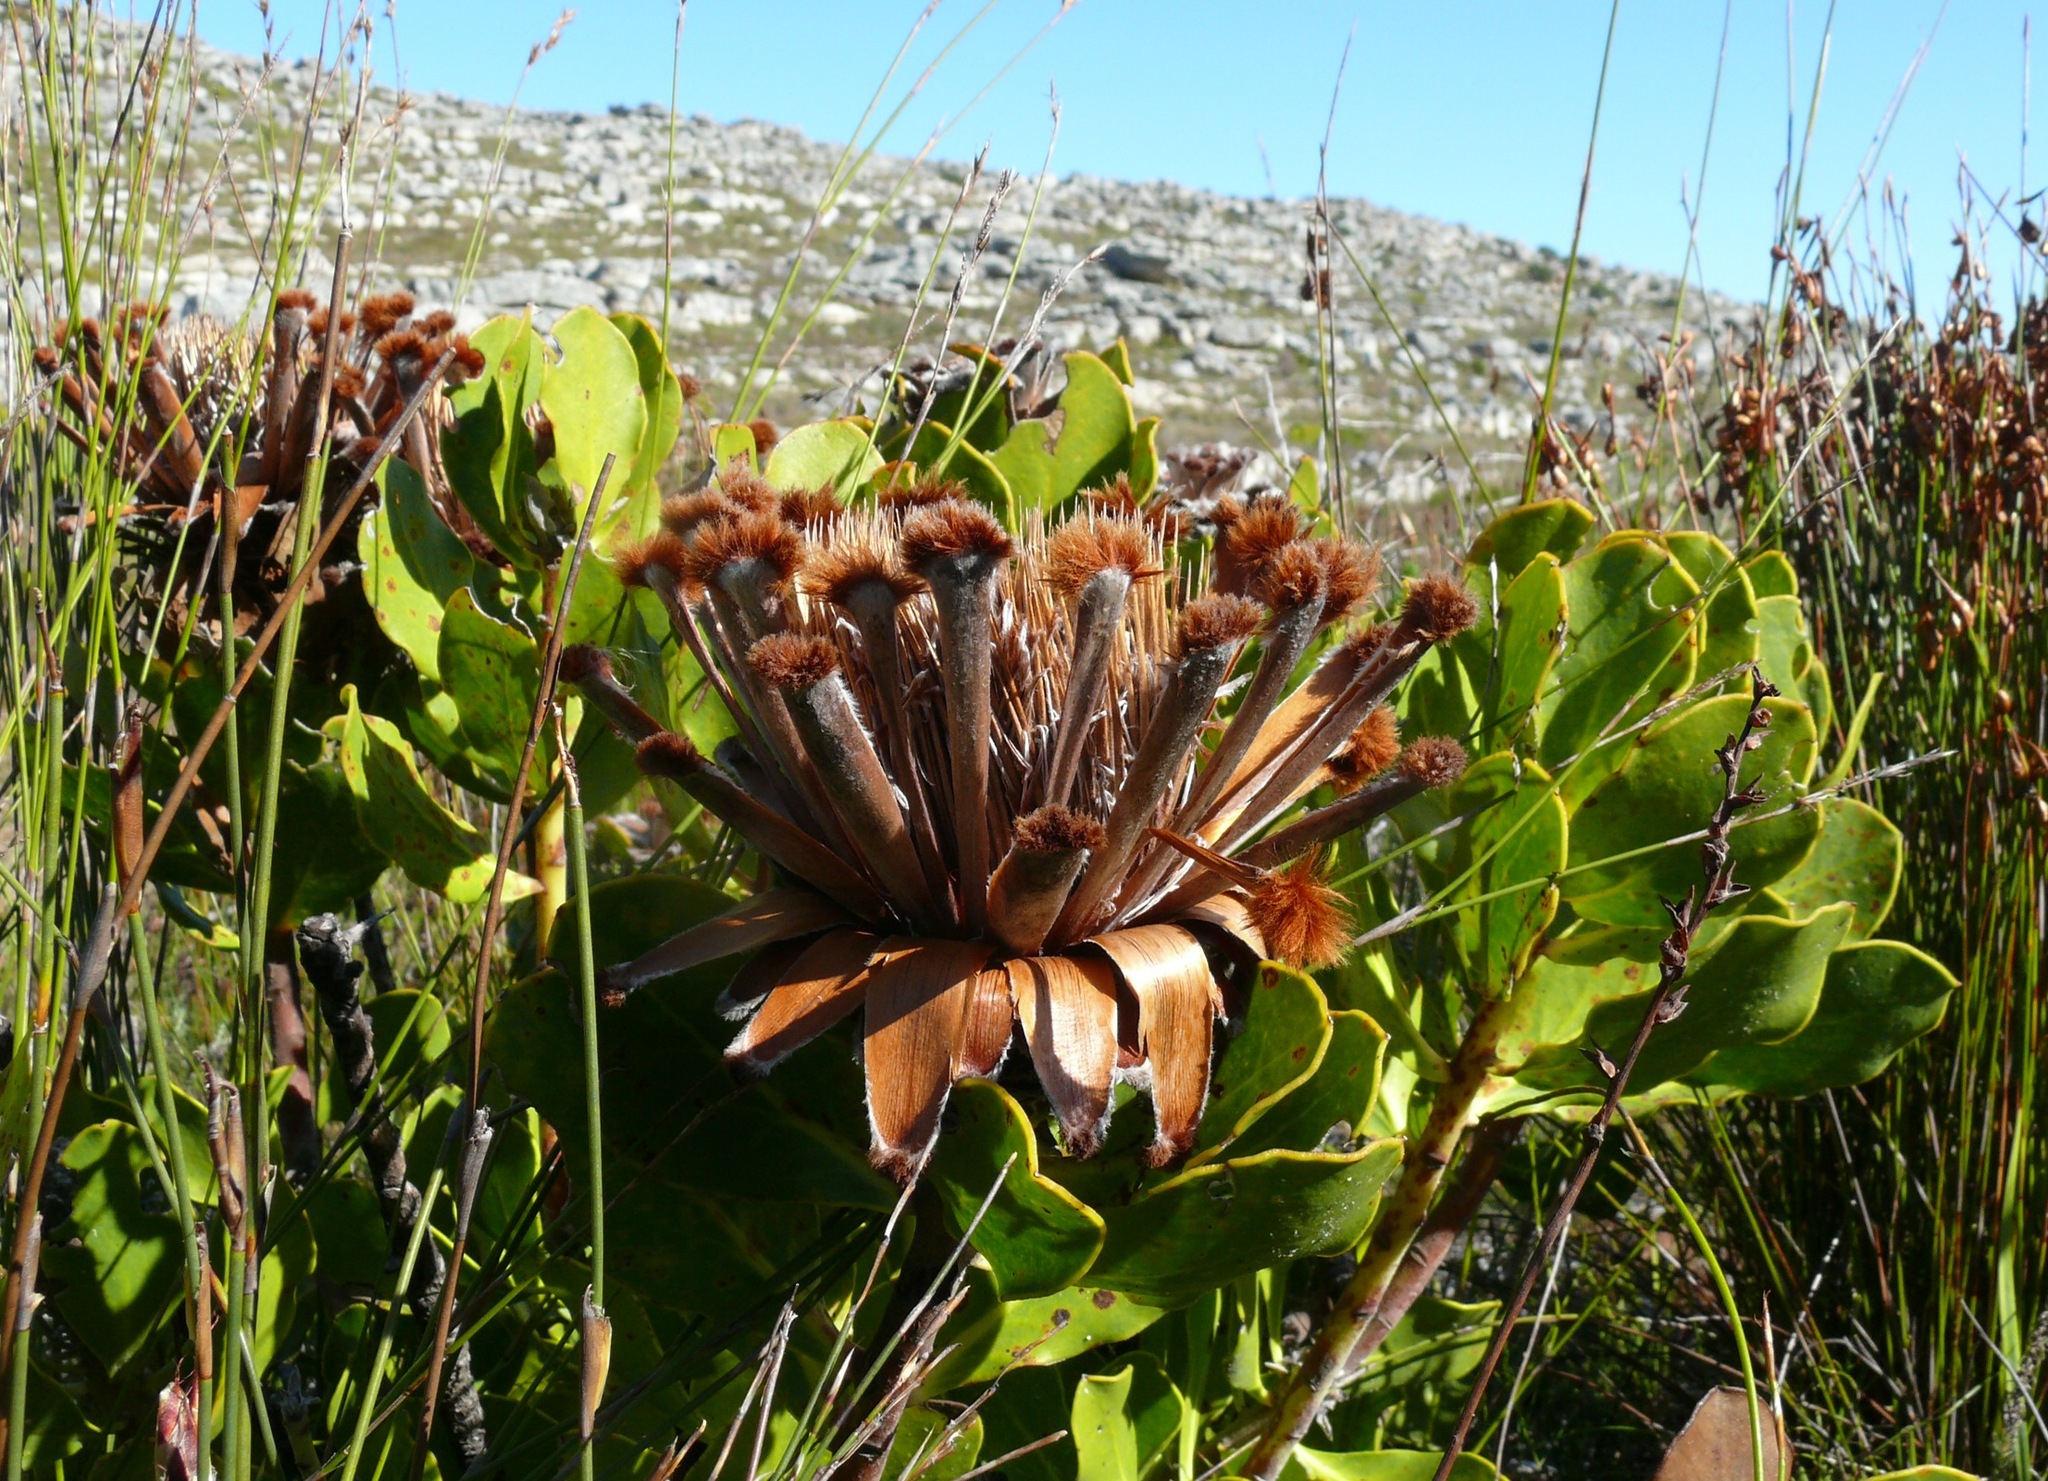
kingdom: Plantae
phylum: Tracheophyta
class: Magnoliopsida
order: Proteales
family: Proteaceae
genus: Protea
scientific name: Protea speciosa
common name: Brown-beard sugarbush
